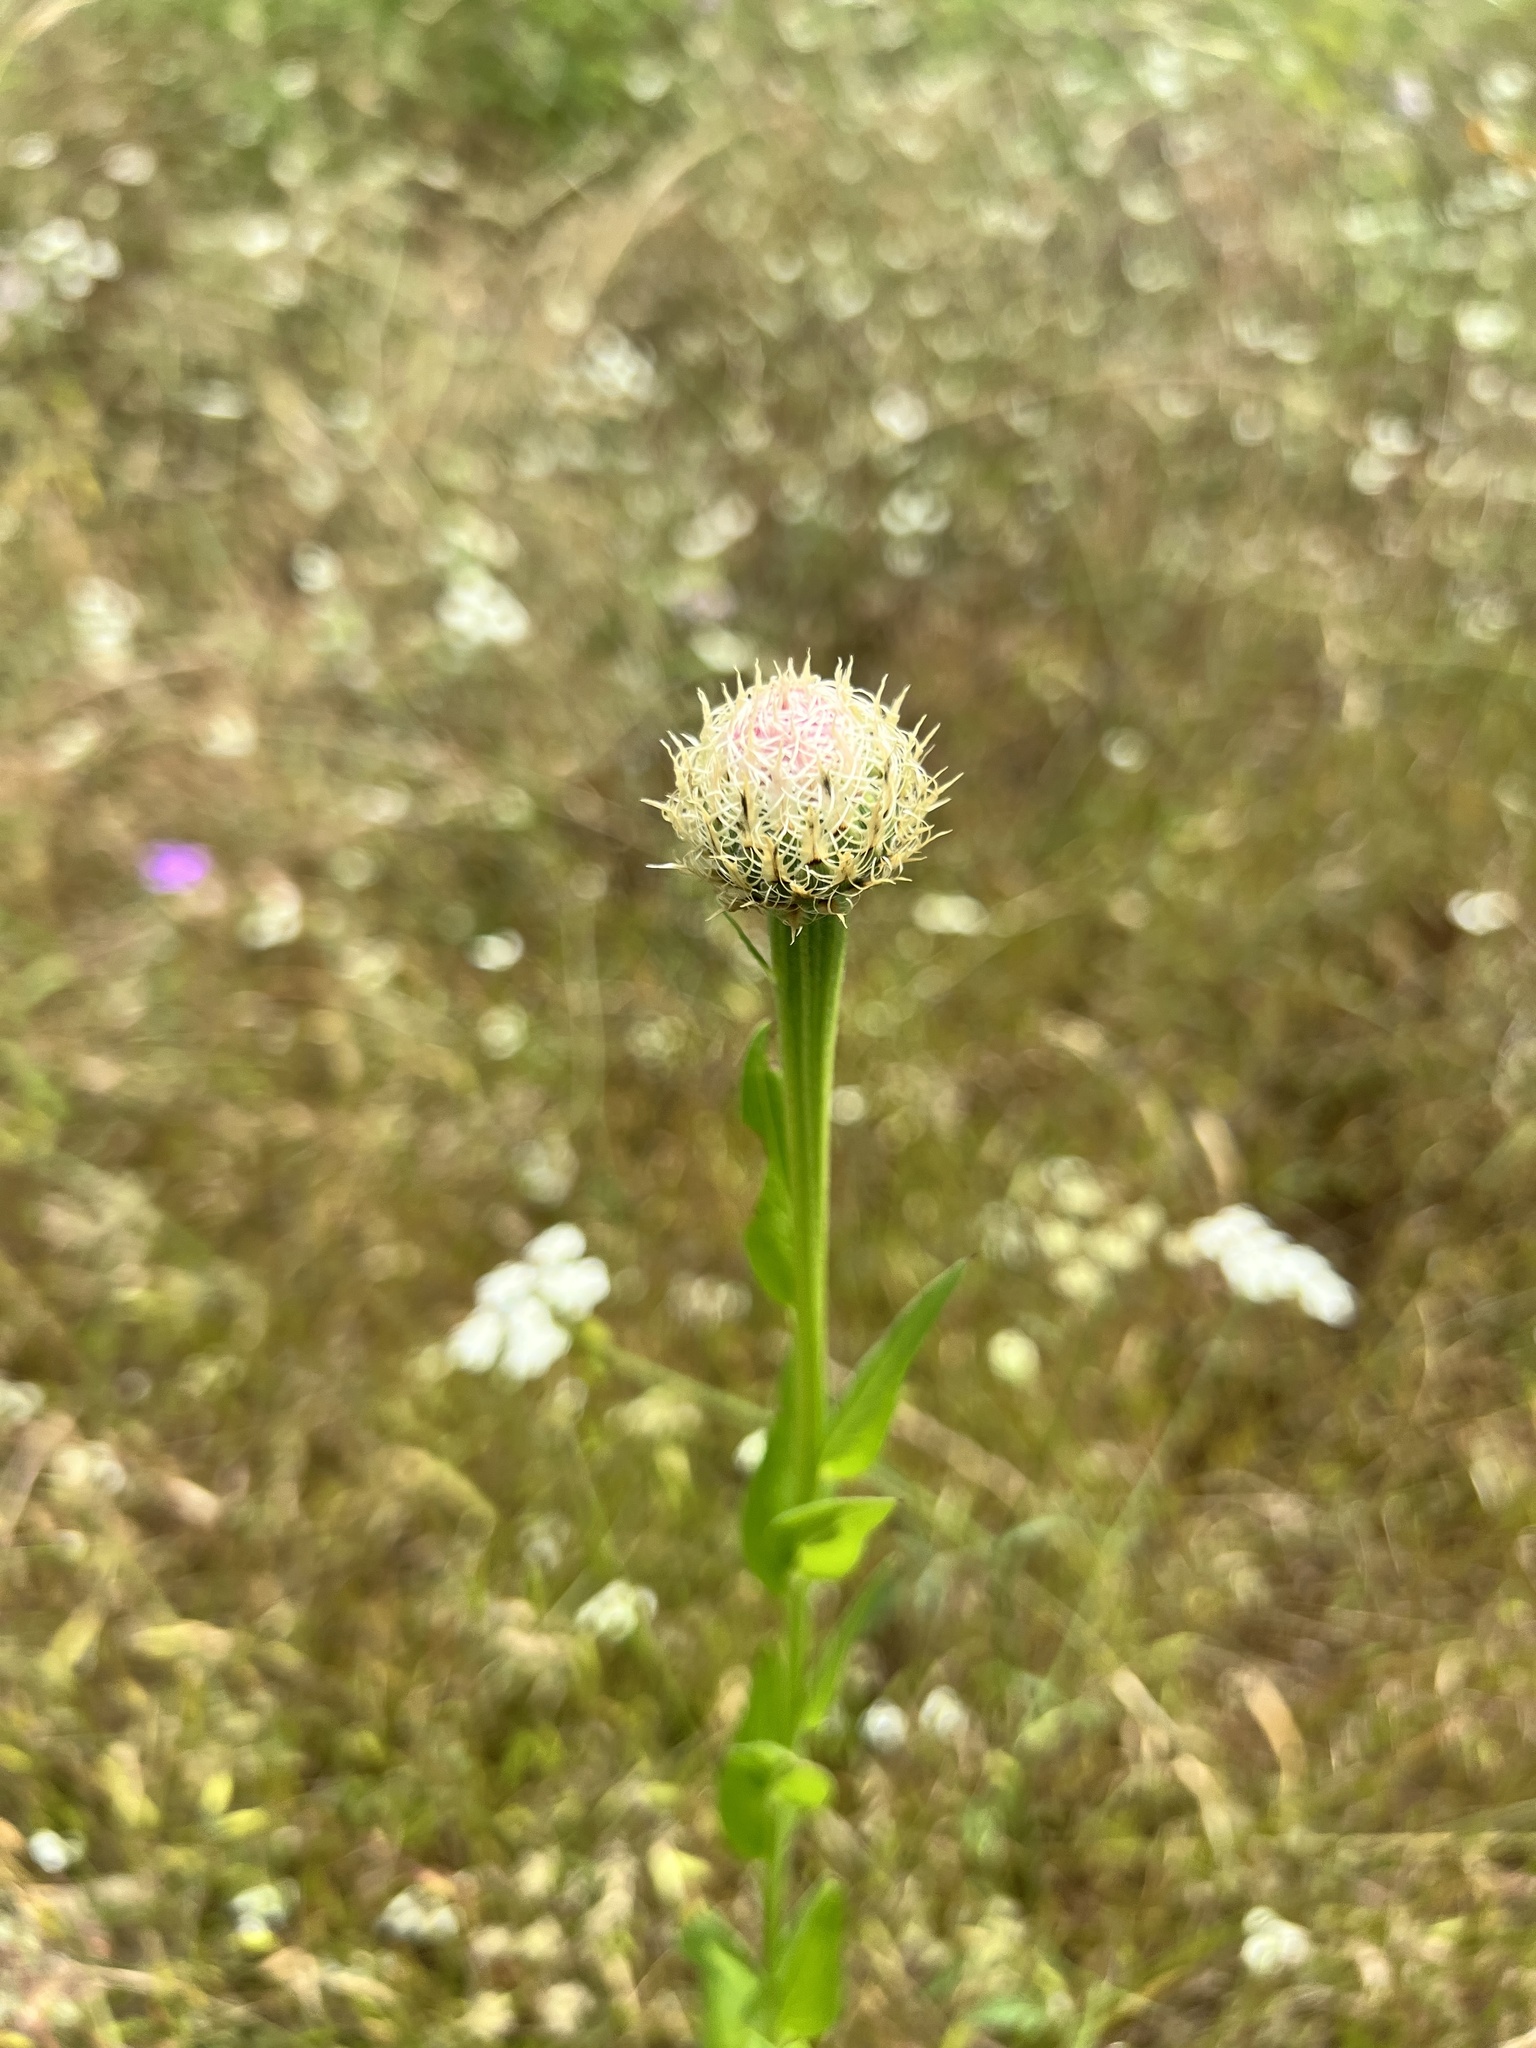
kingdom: Plantae
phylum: Tracheophyta
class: Magnoliopsida
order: Asterales
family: Asteraceae
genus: Plectocephalus
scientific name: Plectocephalus americanus
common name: American basket-flower
